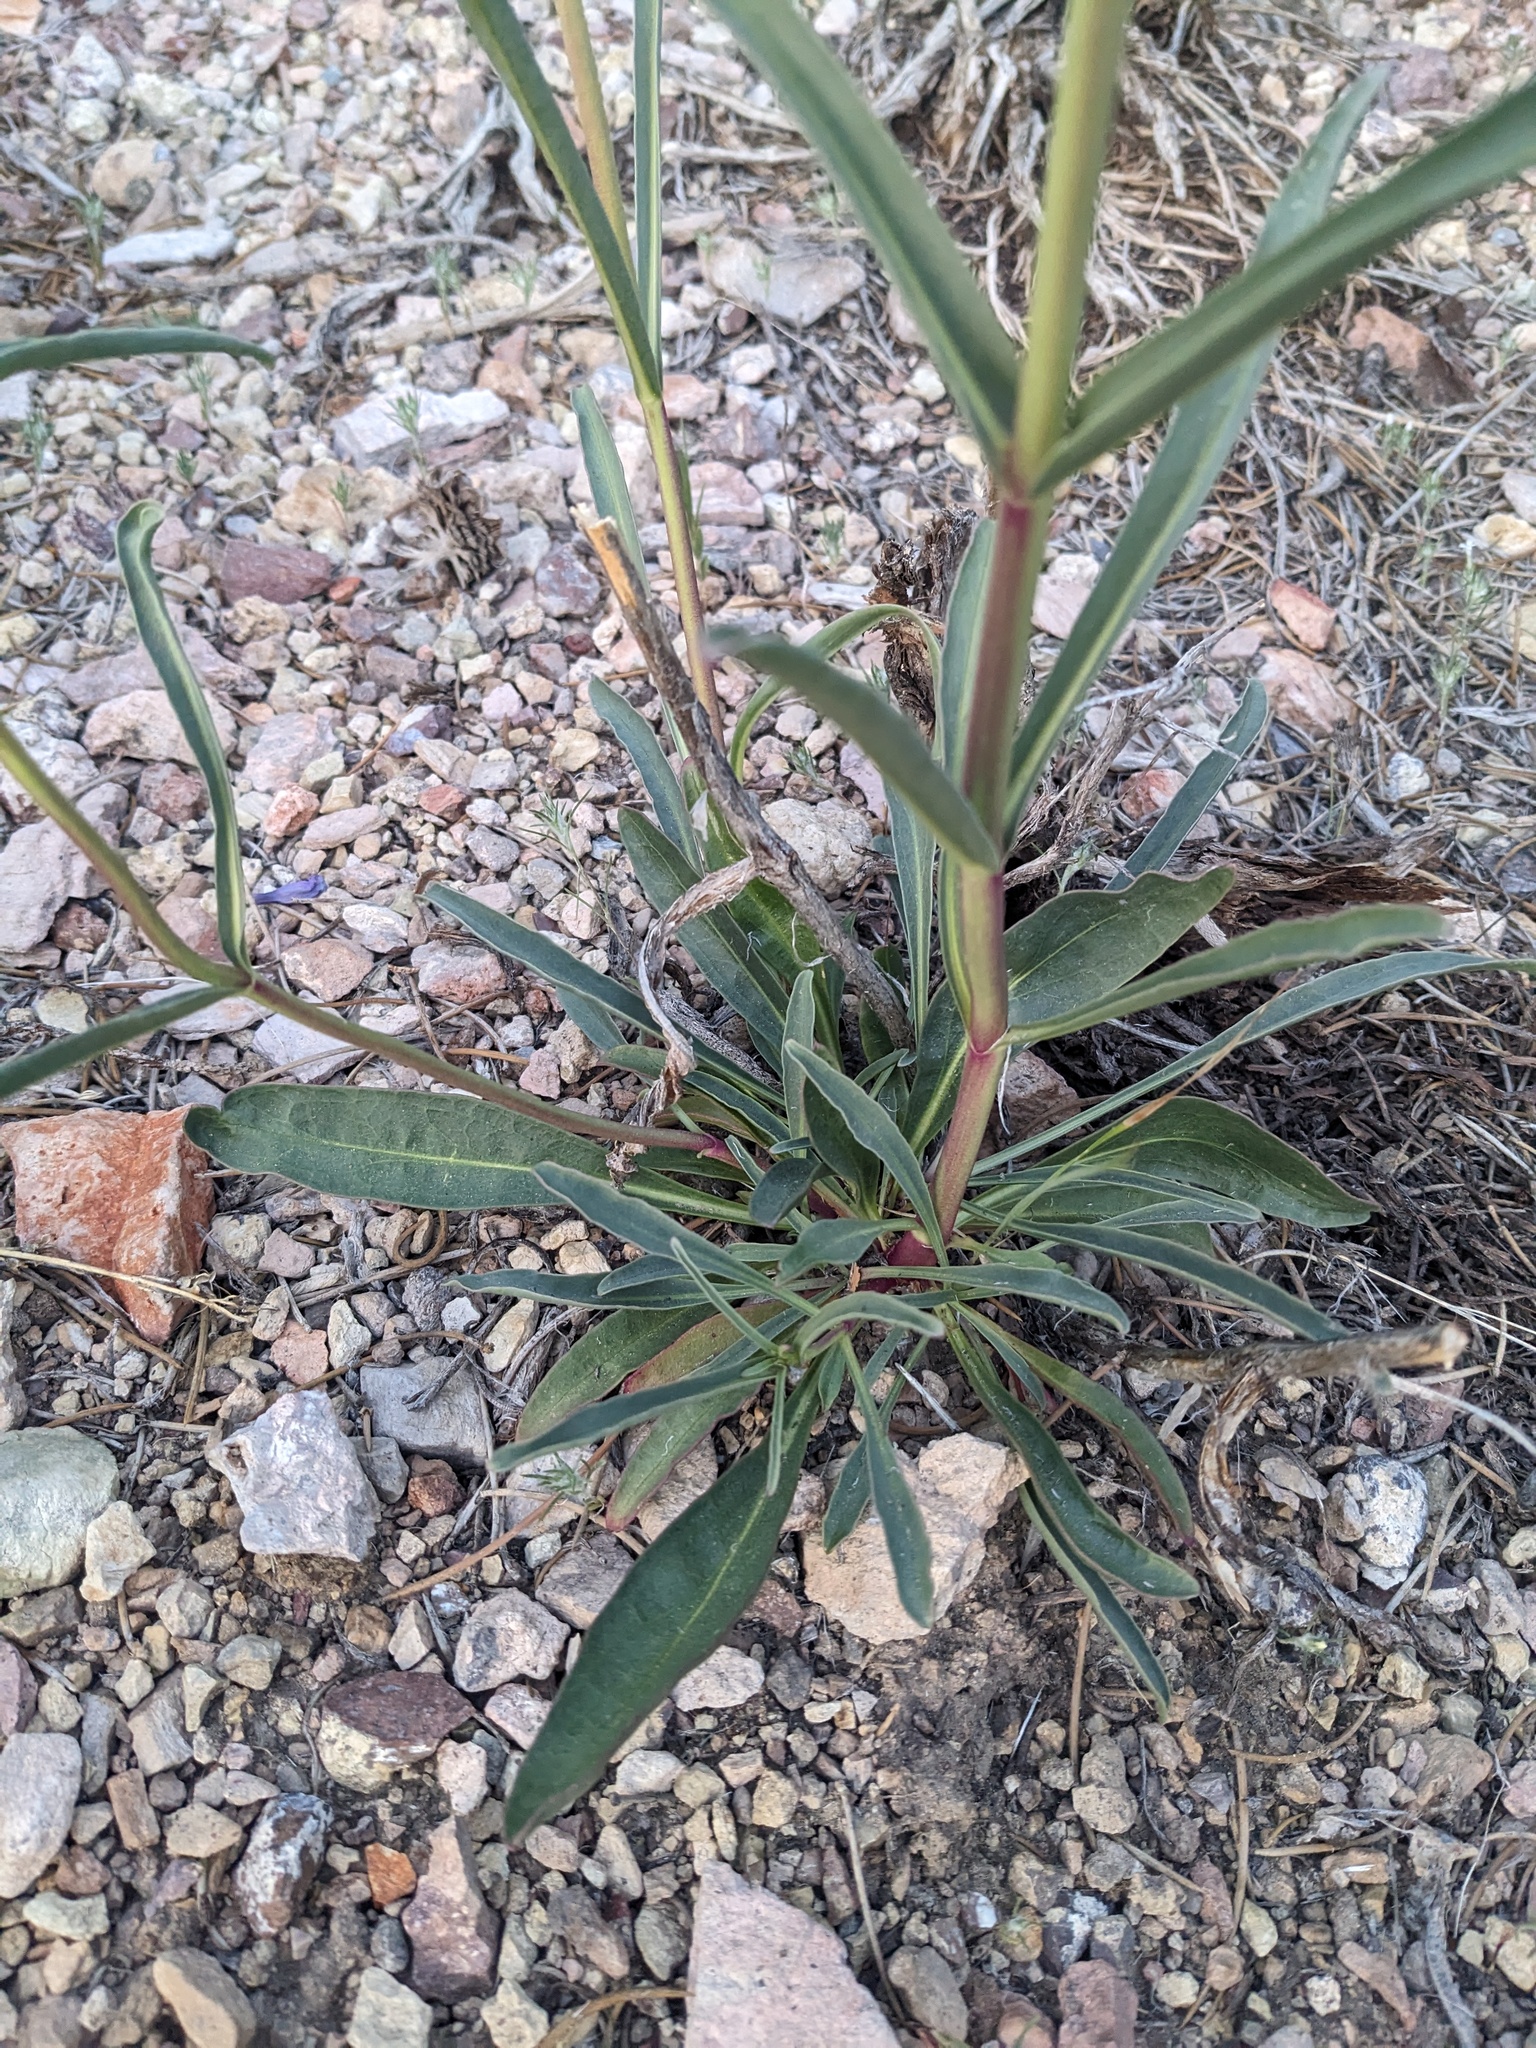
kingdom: Plantae
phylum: Tracheophyta
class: Magnoliopsida
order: Lamiales
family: Plantaginaceae
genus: Penstemon
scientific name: Penstemon pahutensis
